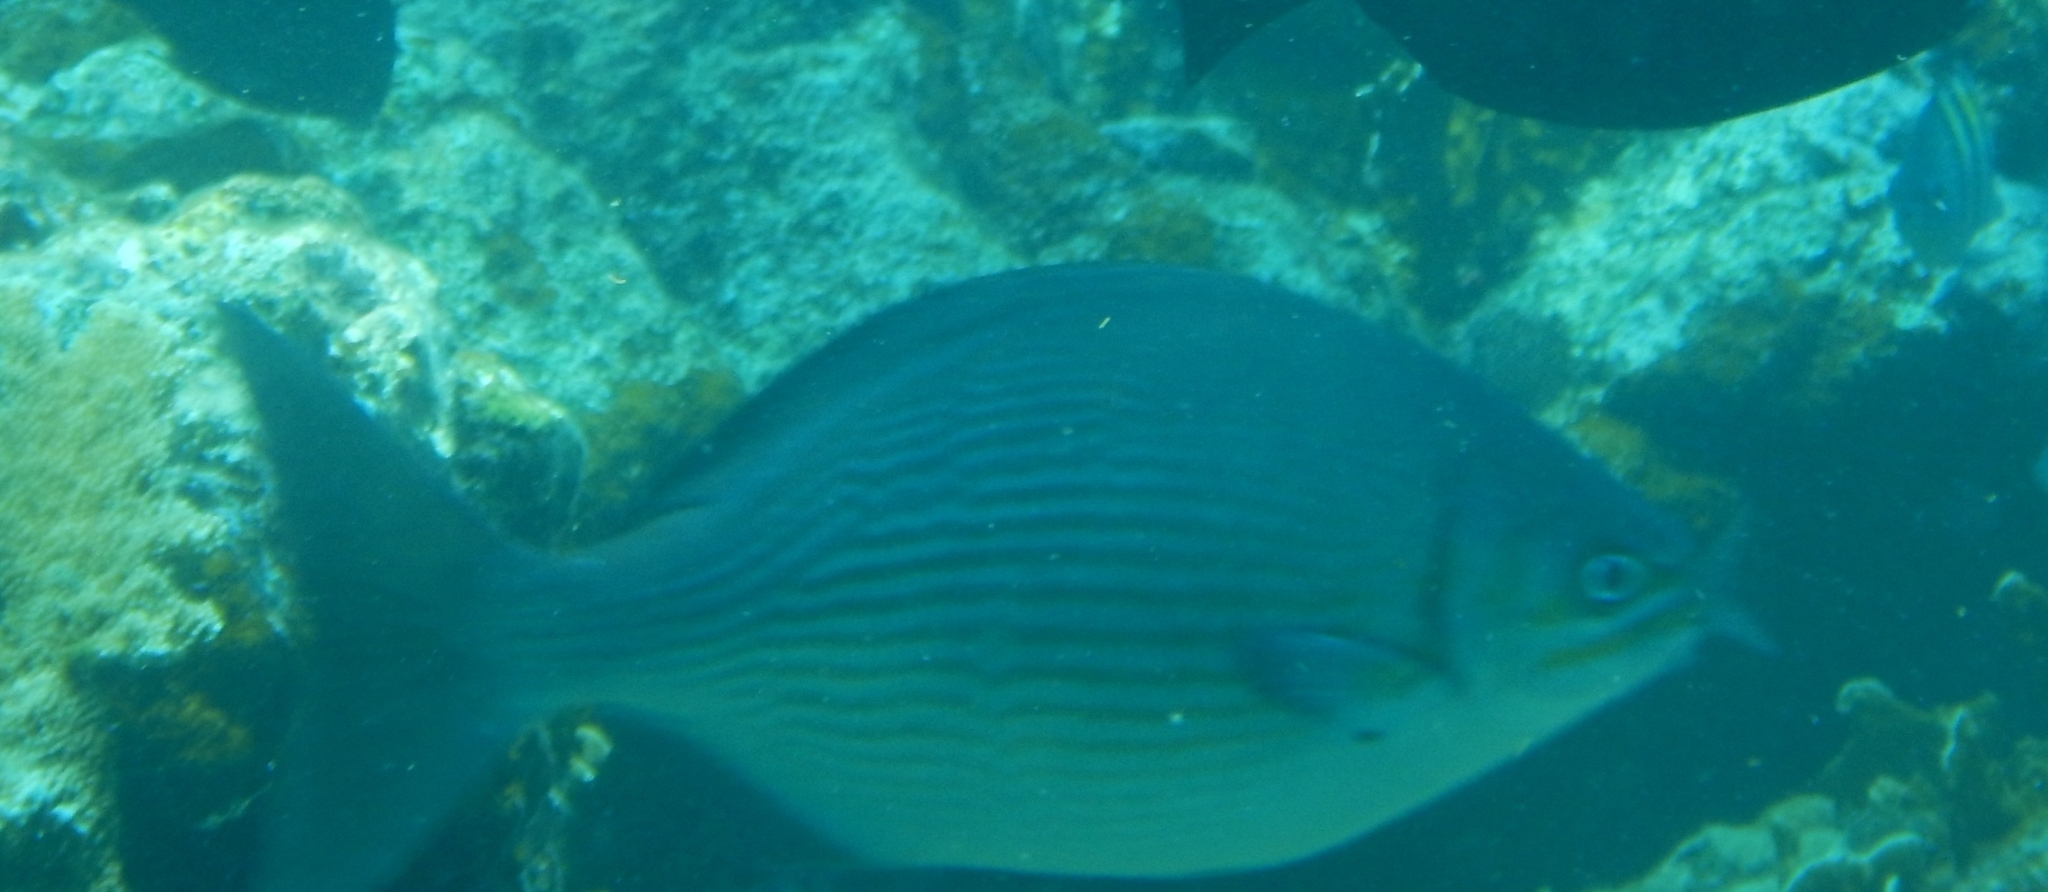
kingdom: Animalia
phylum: Chordata
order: Perciformes
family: Kyphosidae
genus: Kyphosus
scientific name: Kyphosus vaigiensis
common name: Brassy chub
